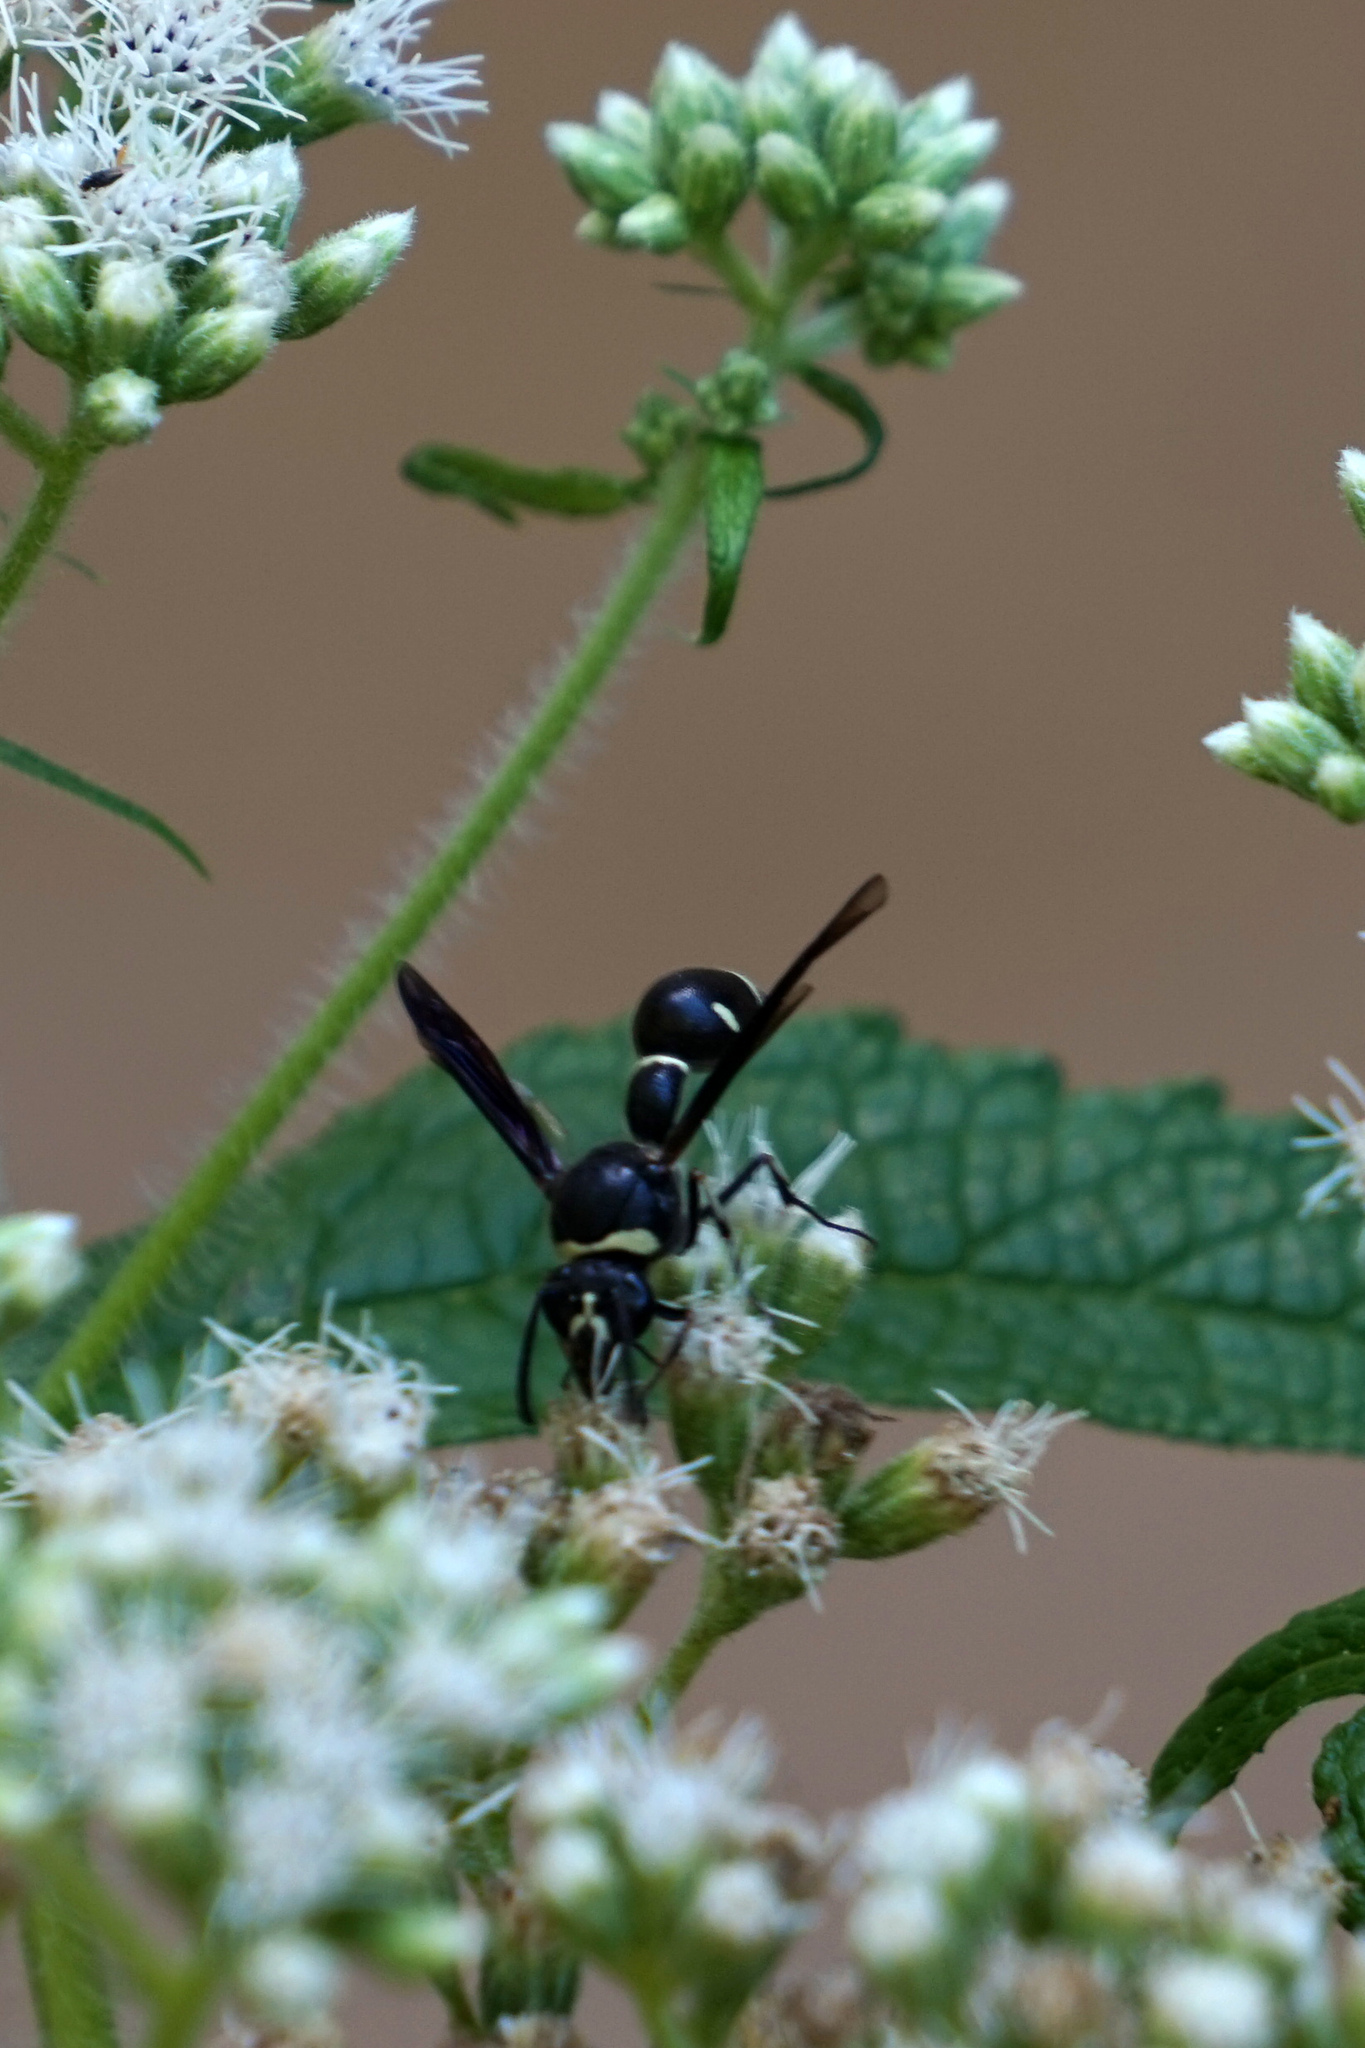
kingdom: Animalia
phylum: Arthropoda
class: Insecta
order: Hymenoptera
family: Vespidae
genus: Eumenes
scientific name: Eumenes fraternus
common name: Fraternal potter wasp
